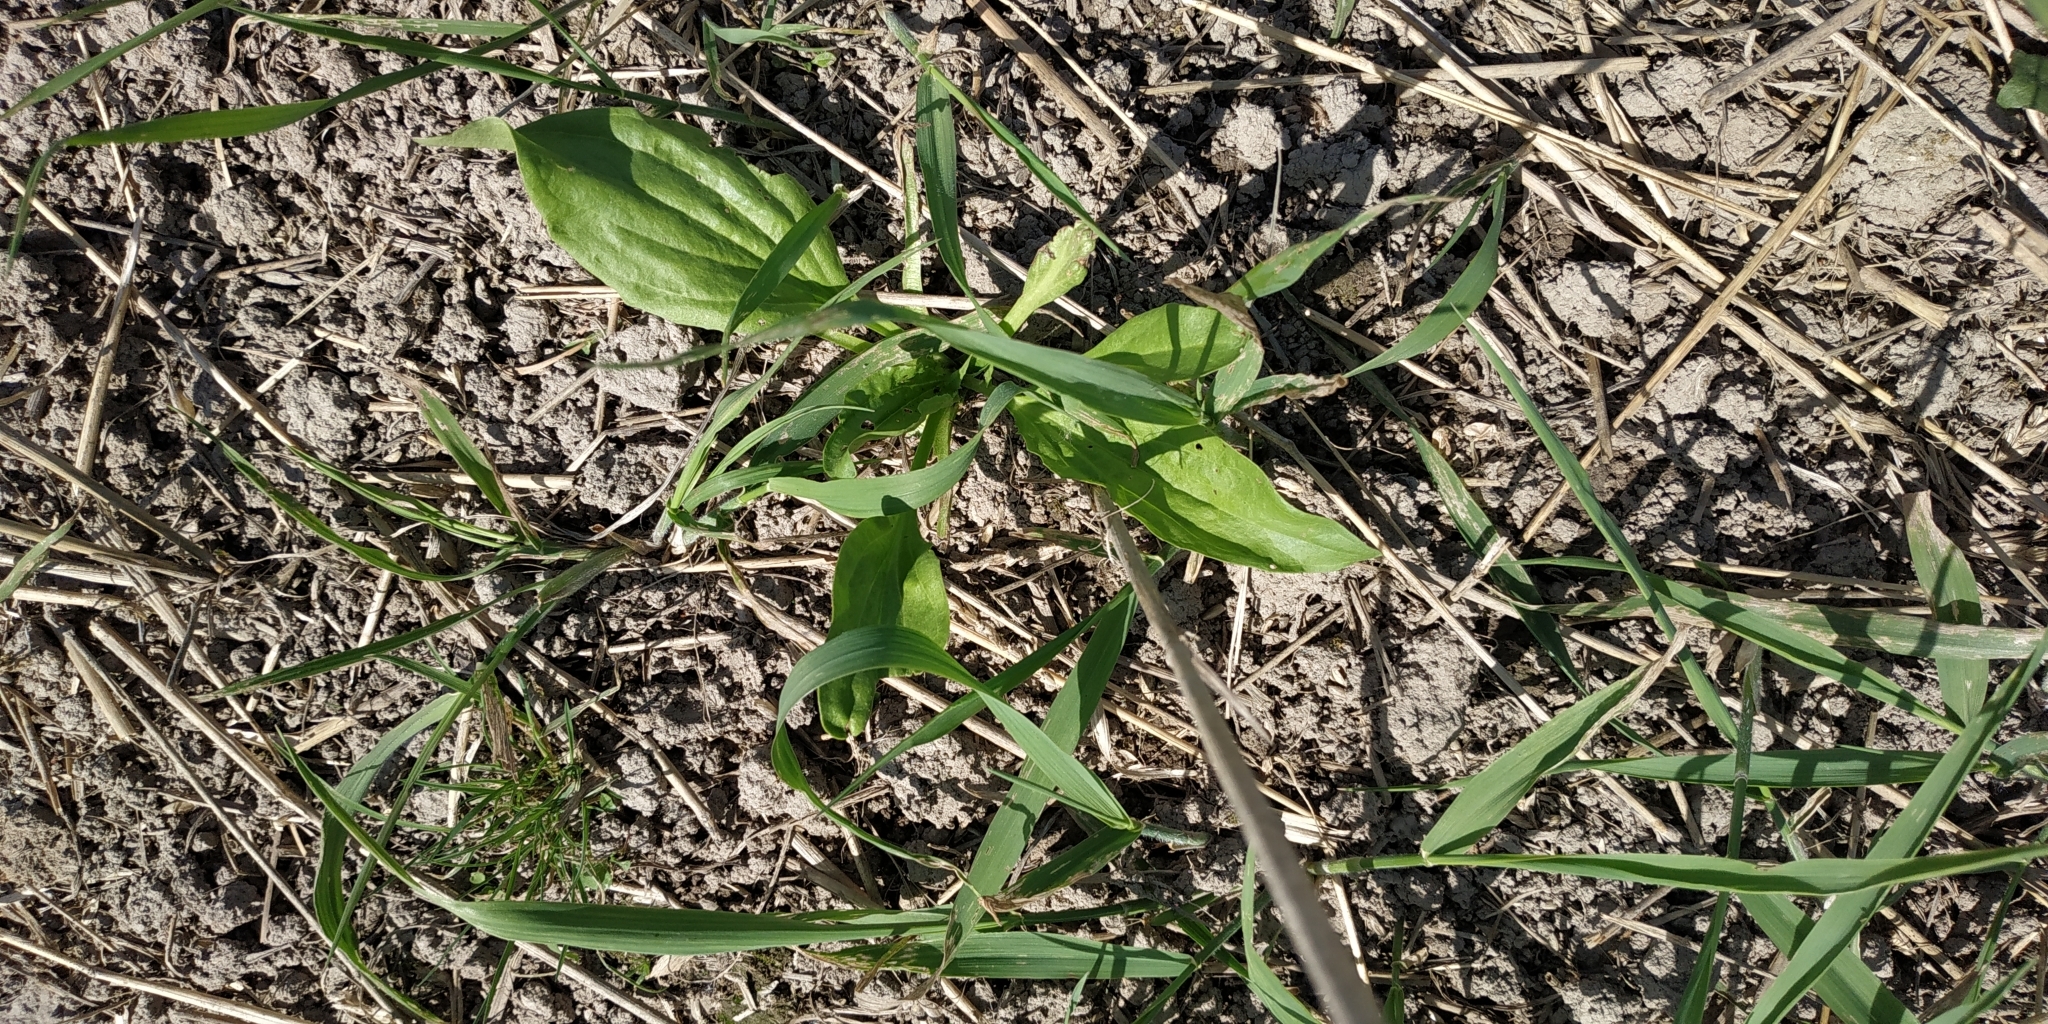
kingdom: Plantae
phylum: Tracheophyta
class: Magnoliopsida
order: Lamiales
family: Plantaginaceae
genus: Plantago
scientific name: Plantago major
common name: Common plantain
